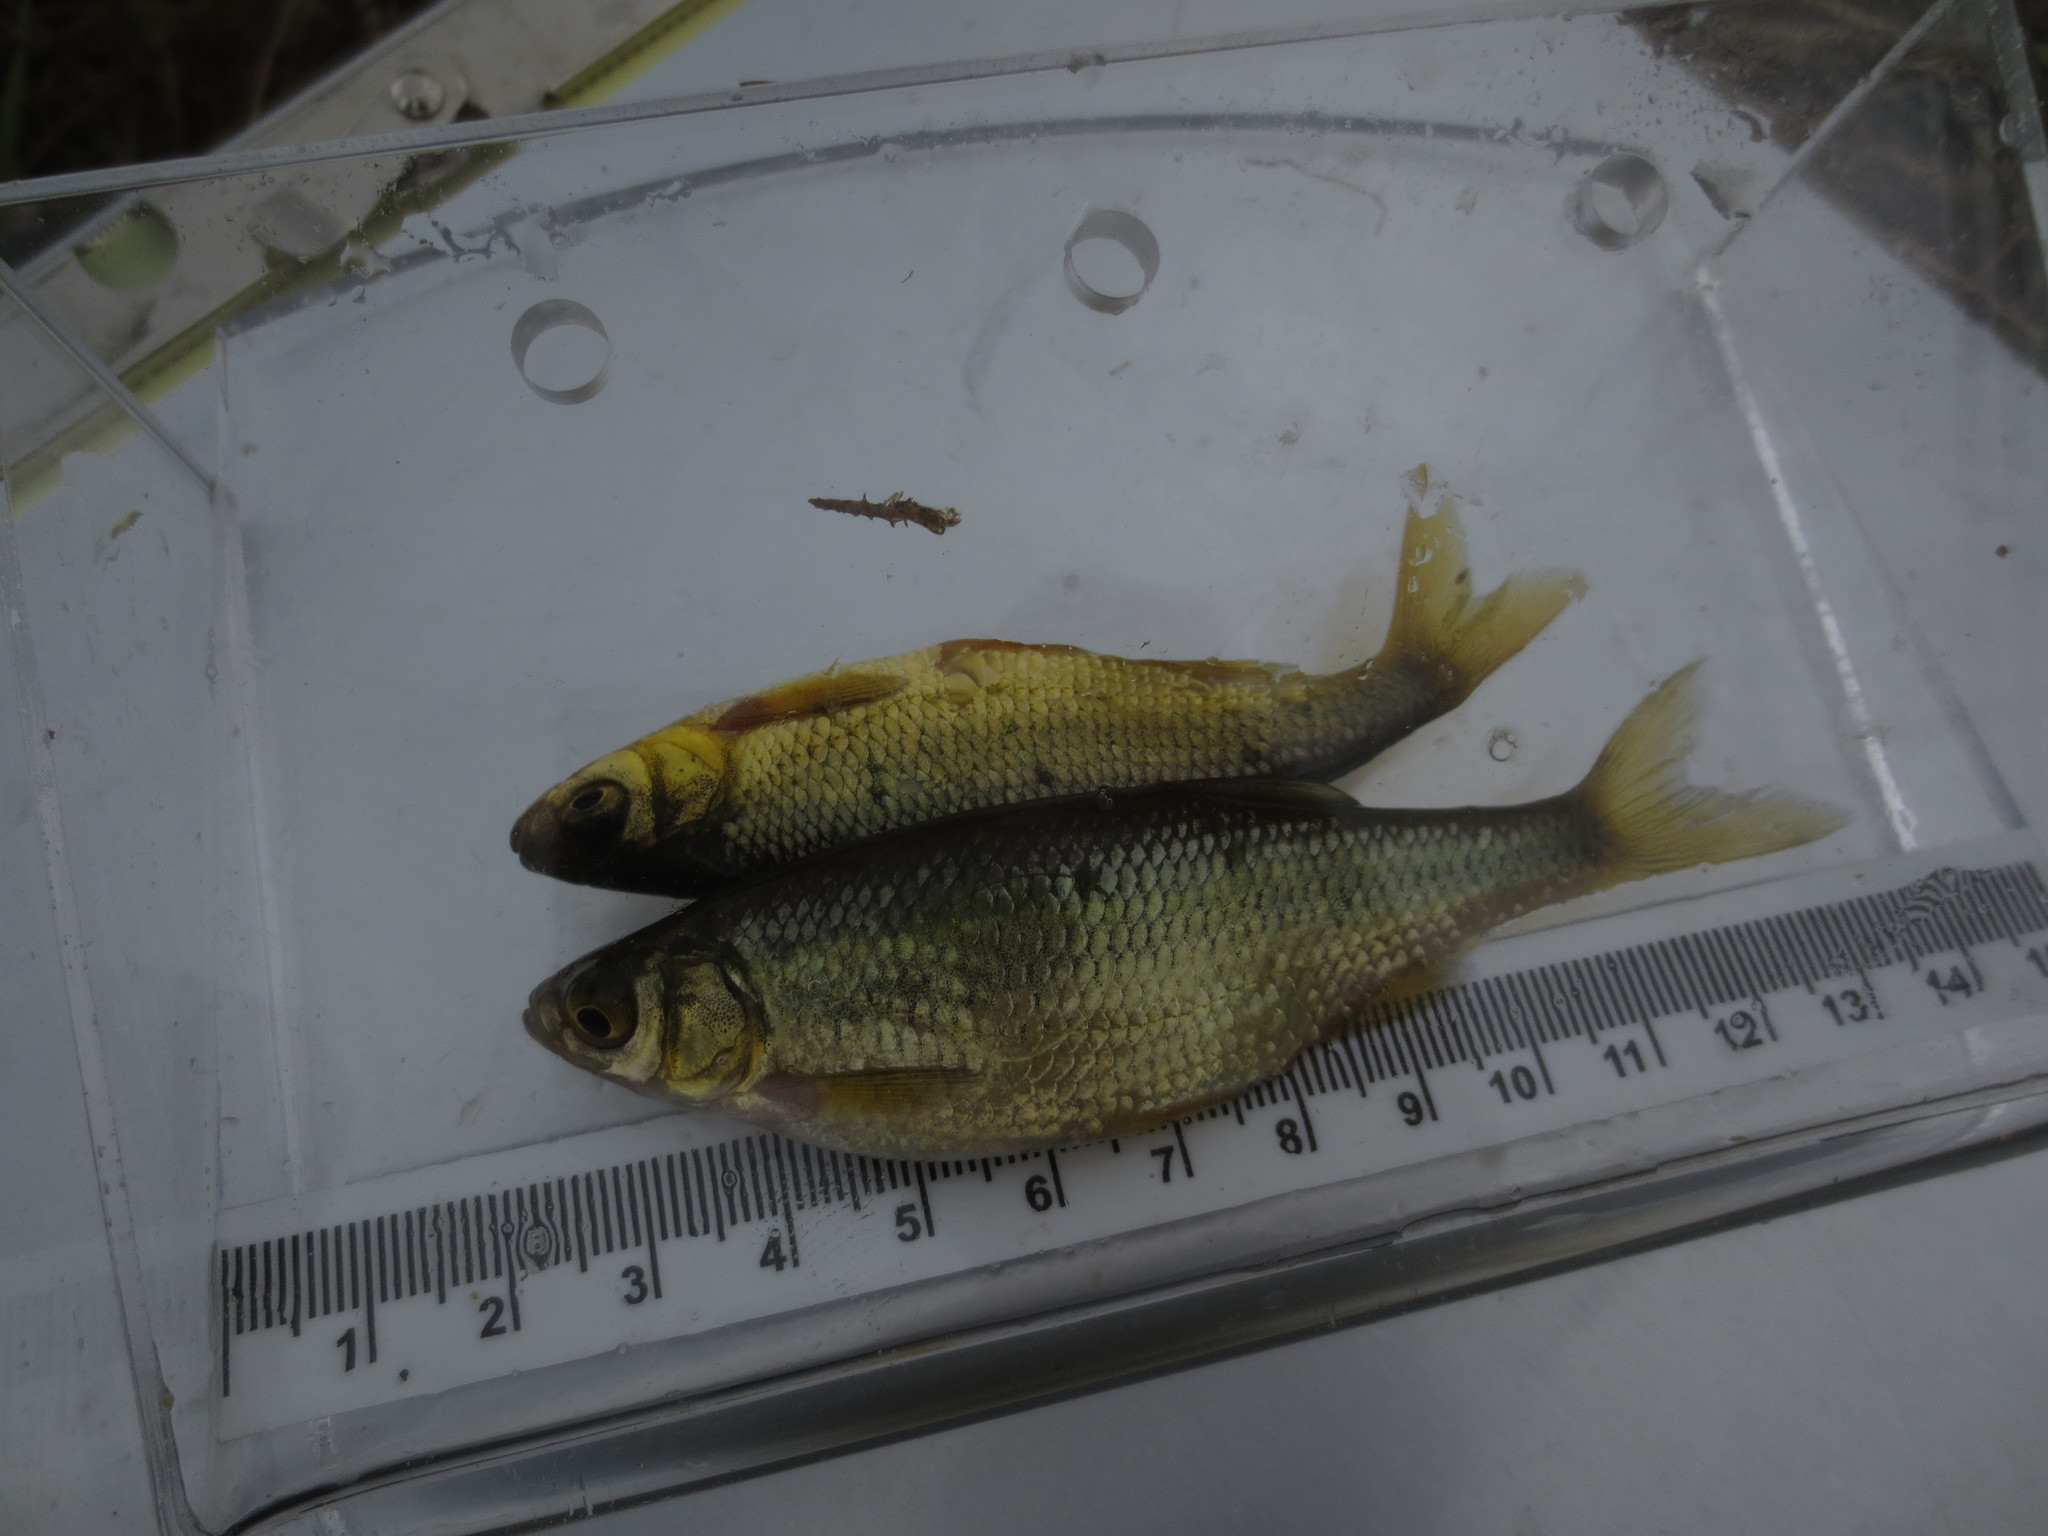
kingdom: Animalia
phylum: Chordata
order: Cypriniformes
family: Cyprinidae
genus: Notemigonus
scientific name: Notemigonus crysoleucas
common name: Golden shiner
